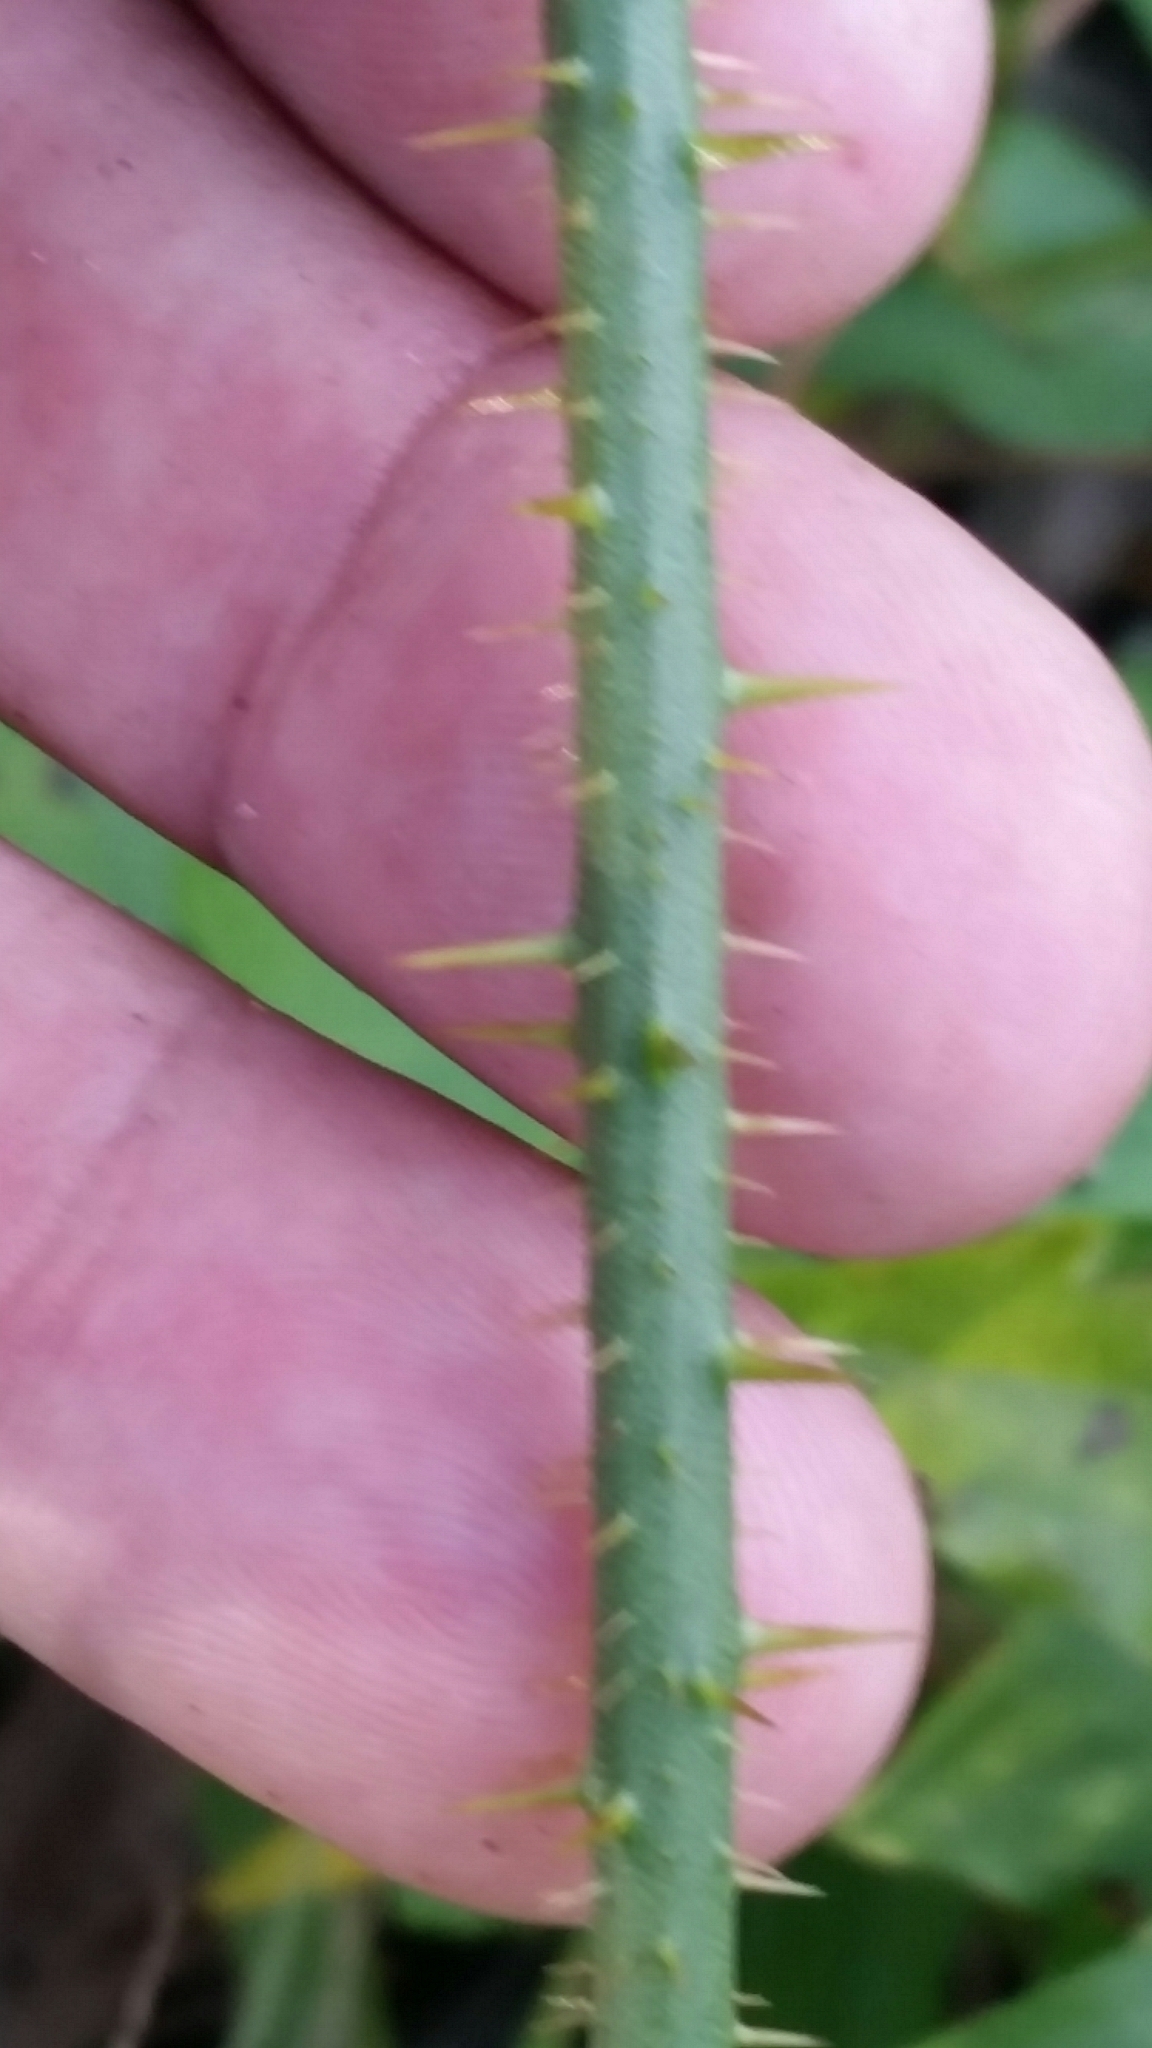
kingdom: Plantae
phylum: Tracheophyta
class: Liliopsida
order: Liliales
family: Smilacaceae
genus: Smilax
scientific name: Smilax bona-nox
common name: Catbrier
